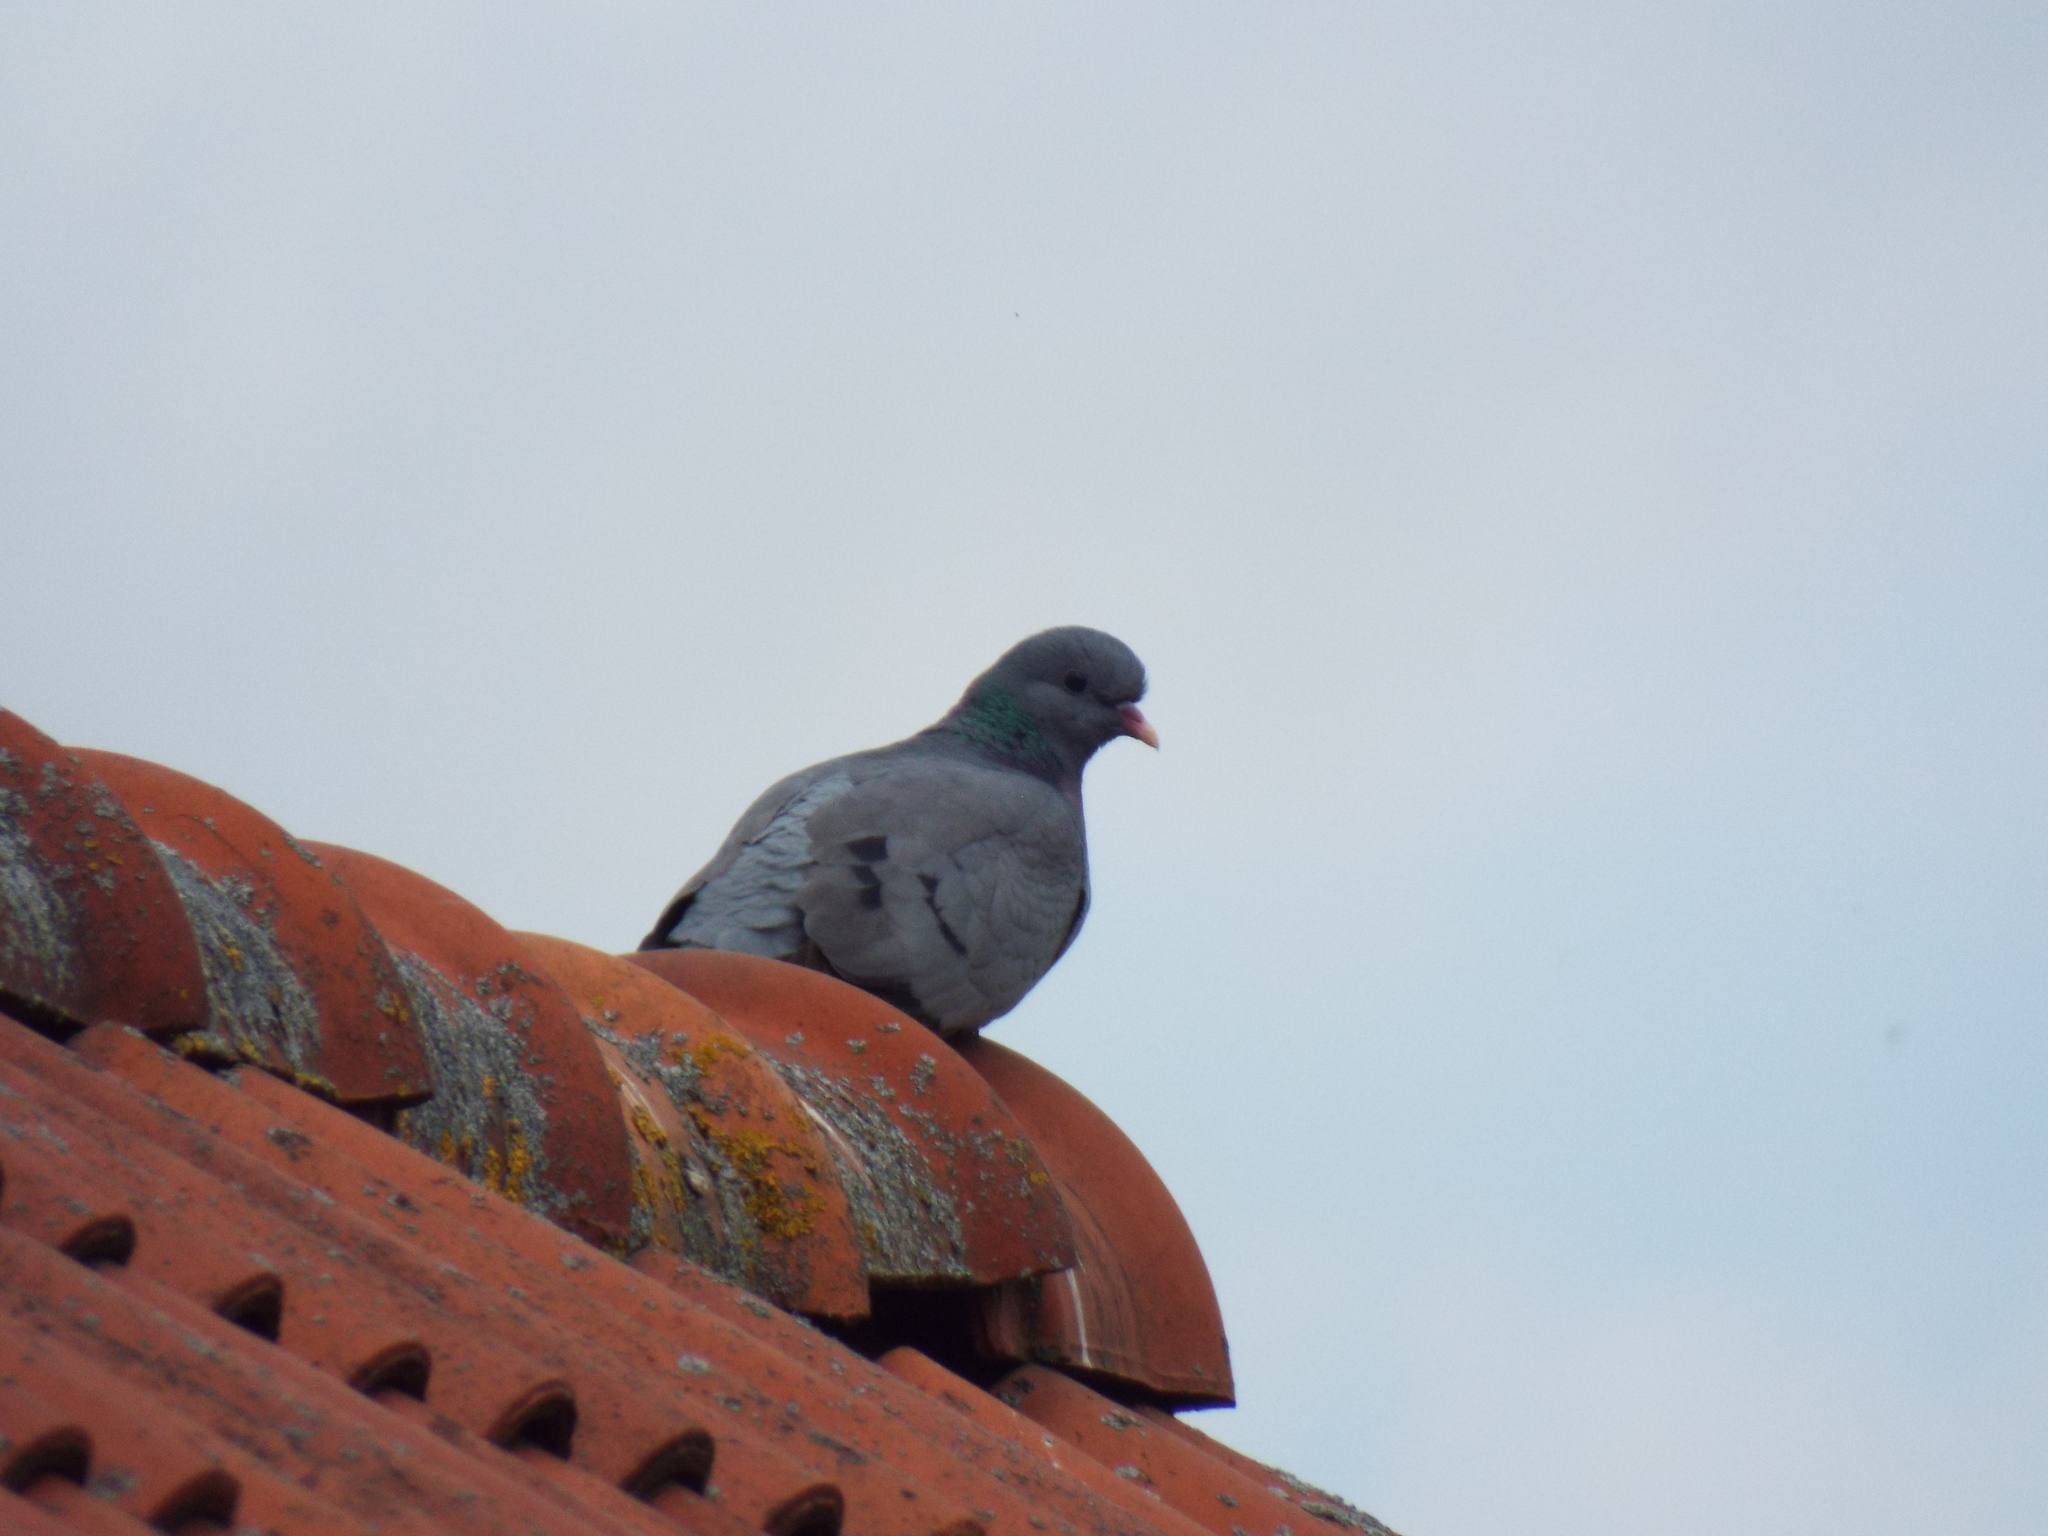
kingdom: Animalia
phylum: Chordata
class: Aves
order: Columbiformes
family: Columbidae
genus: Columba
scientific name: Columba oenas
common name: Stock dove
